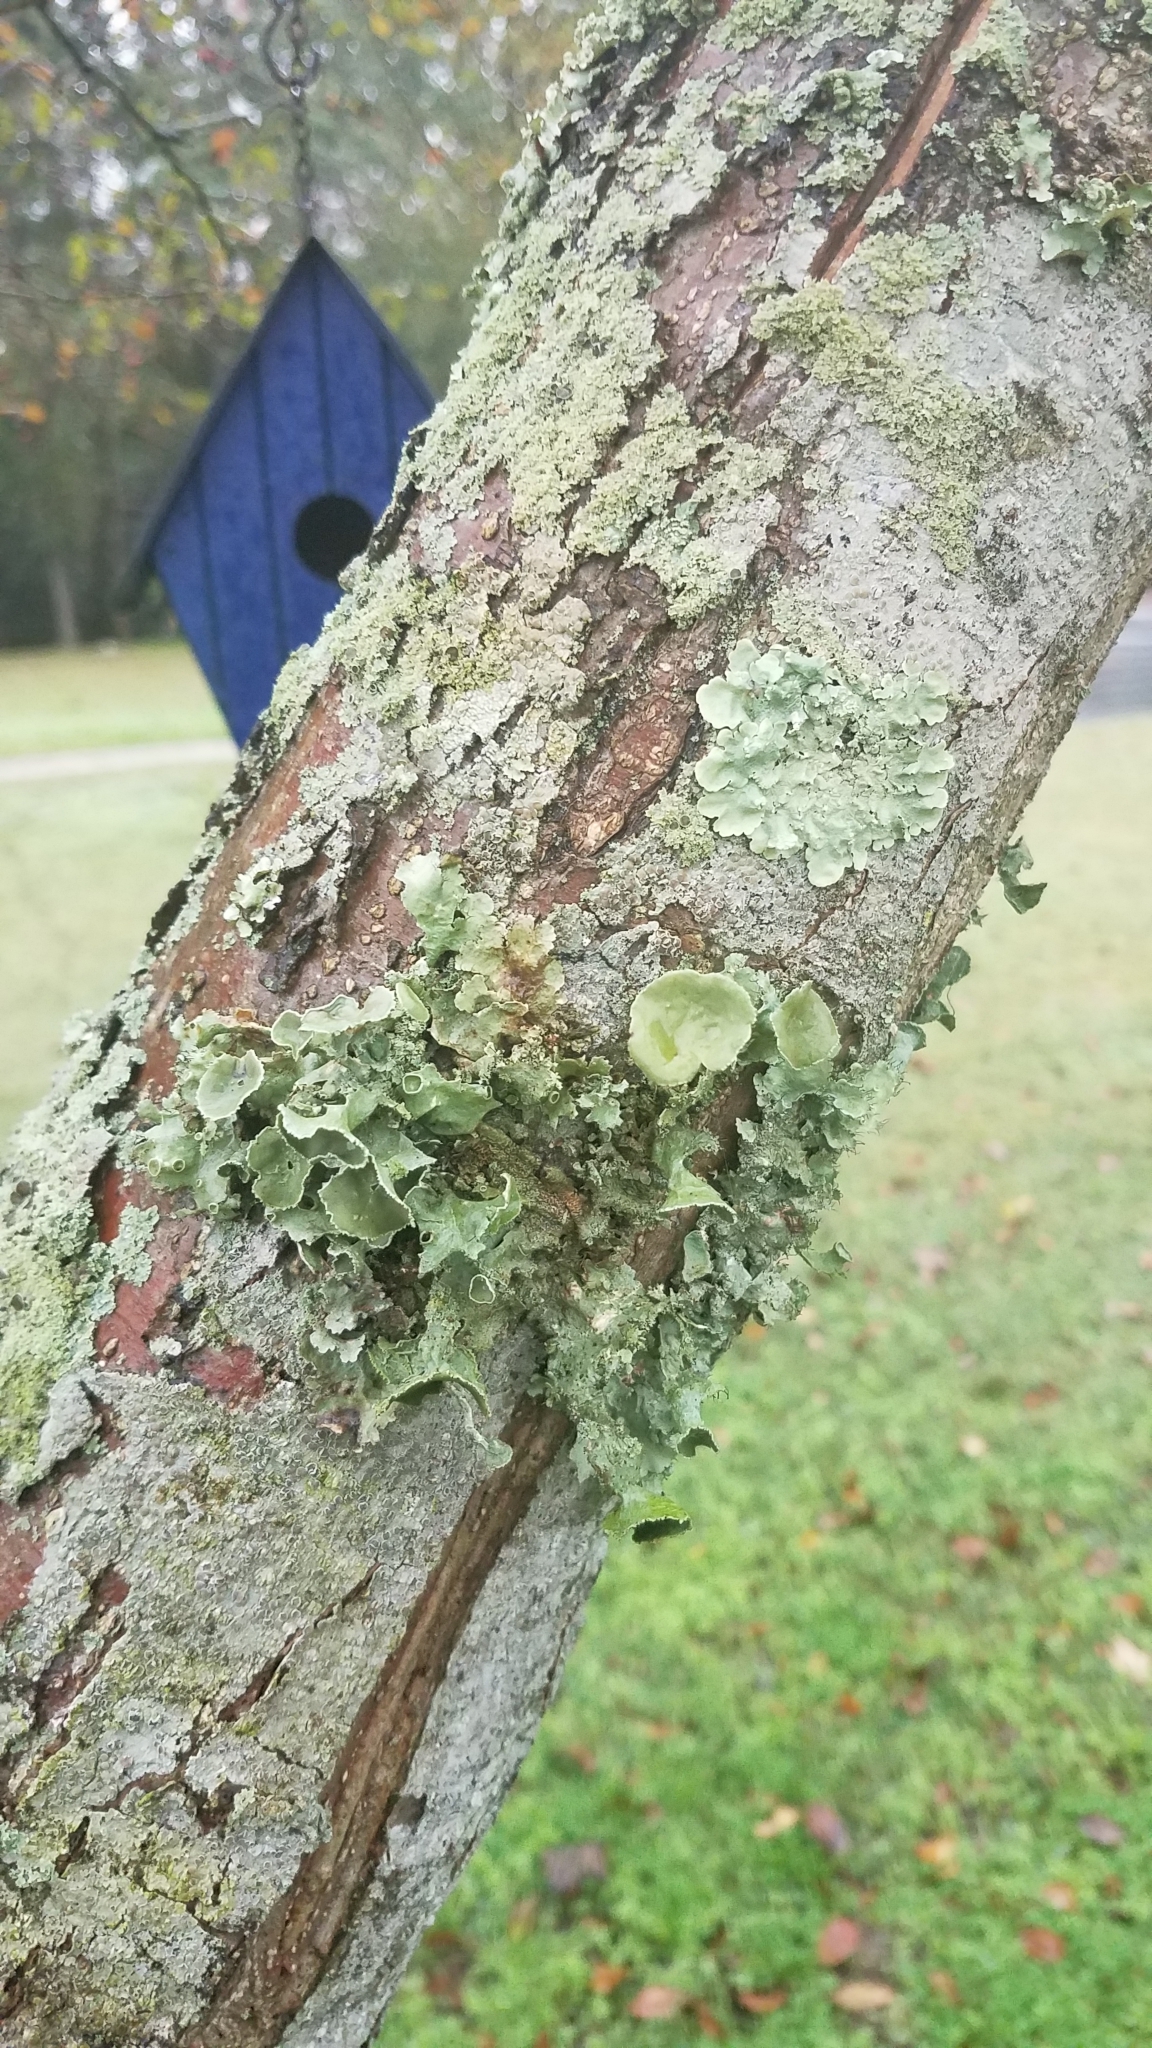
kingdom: Fungi
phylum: Ascomycota
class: Lecanoromycetes
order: Lecanorales
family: Parmeliaceae
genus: Parmotrema
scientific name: Parmotrema perforatum
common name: Perforated ruffle lichen
